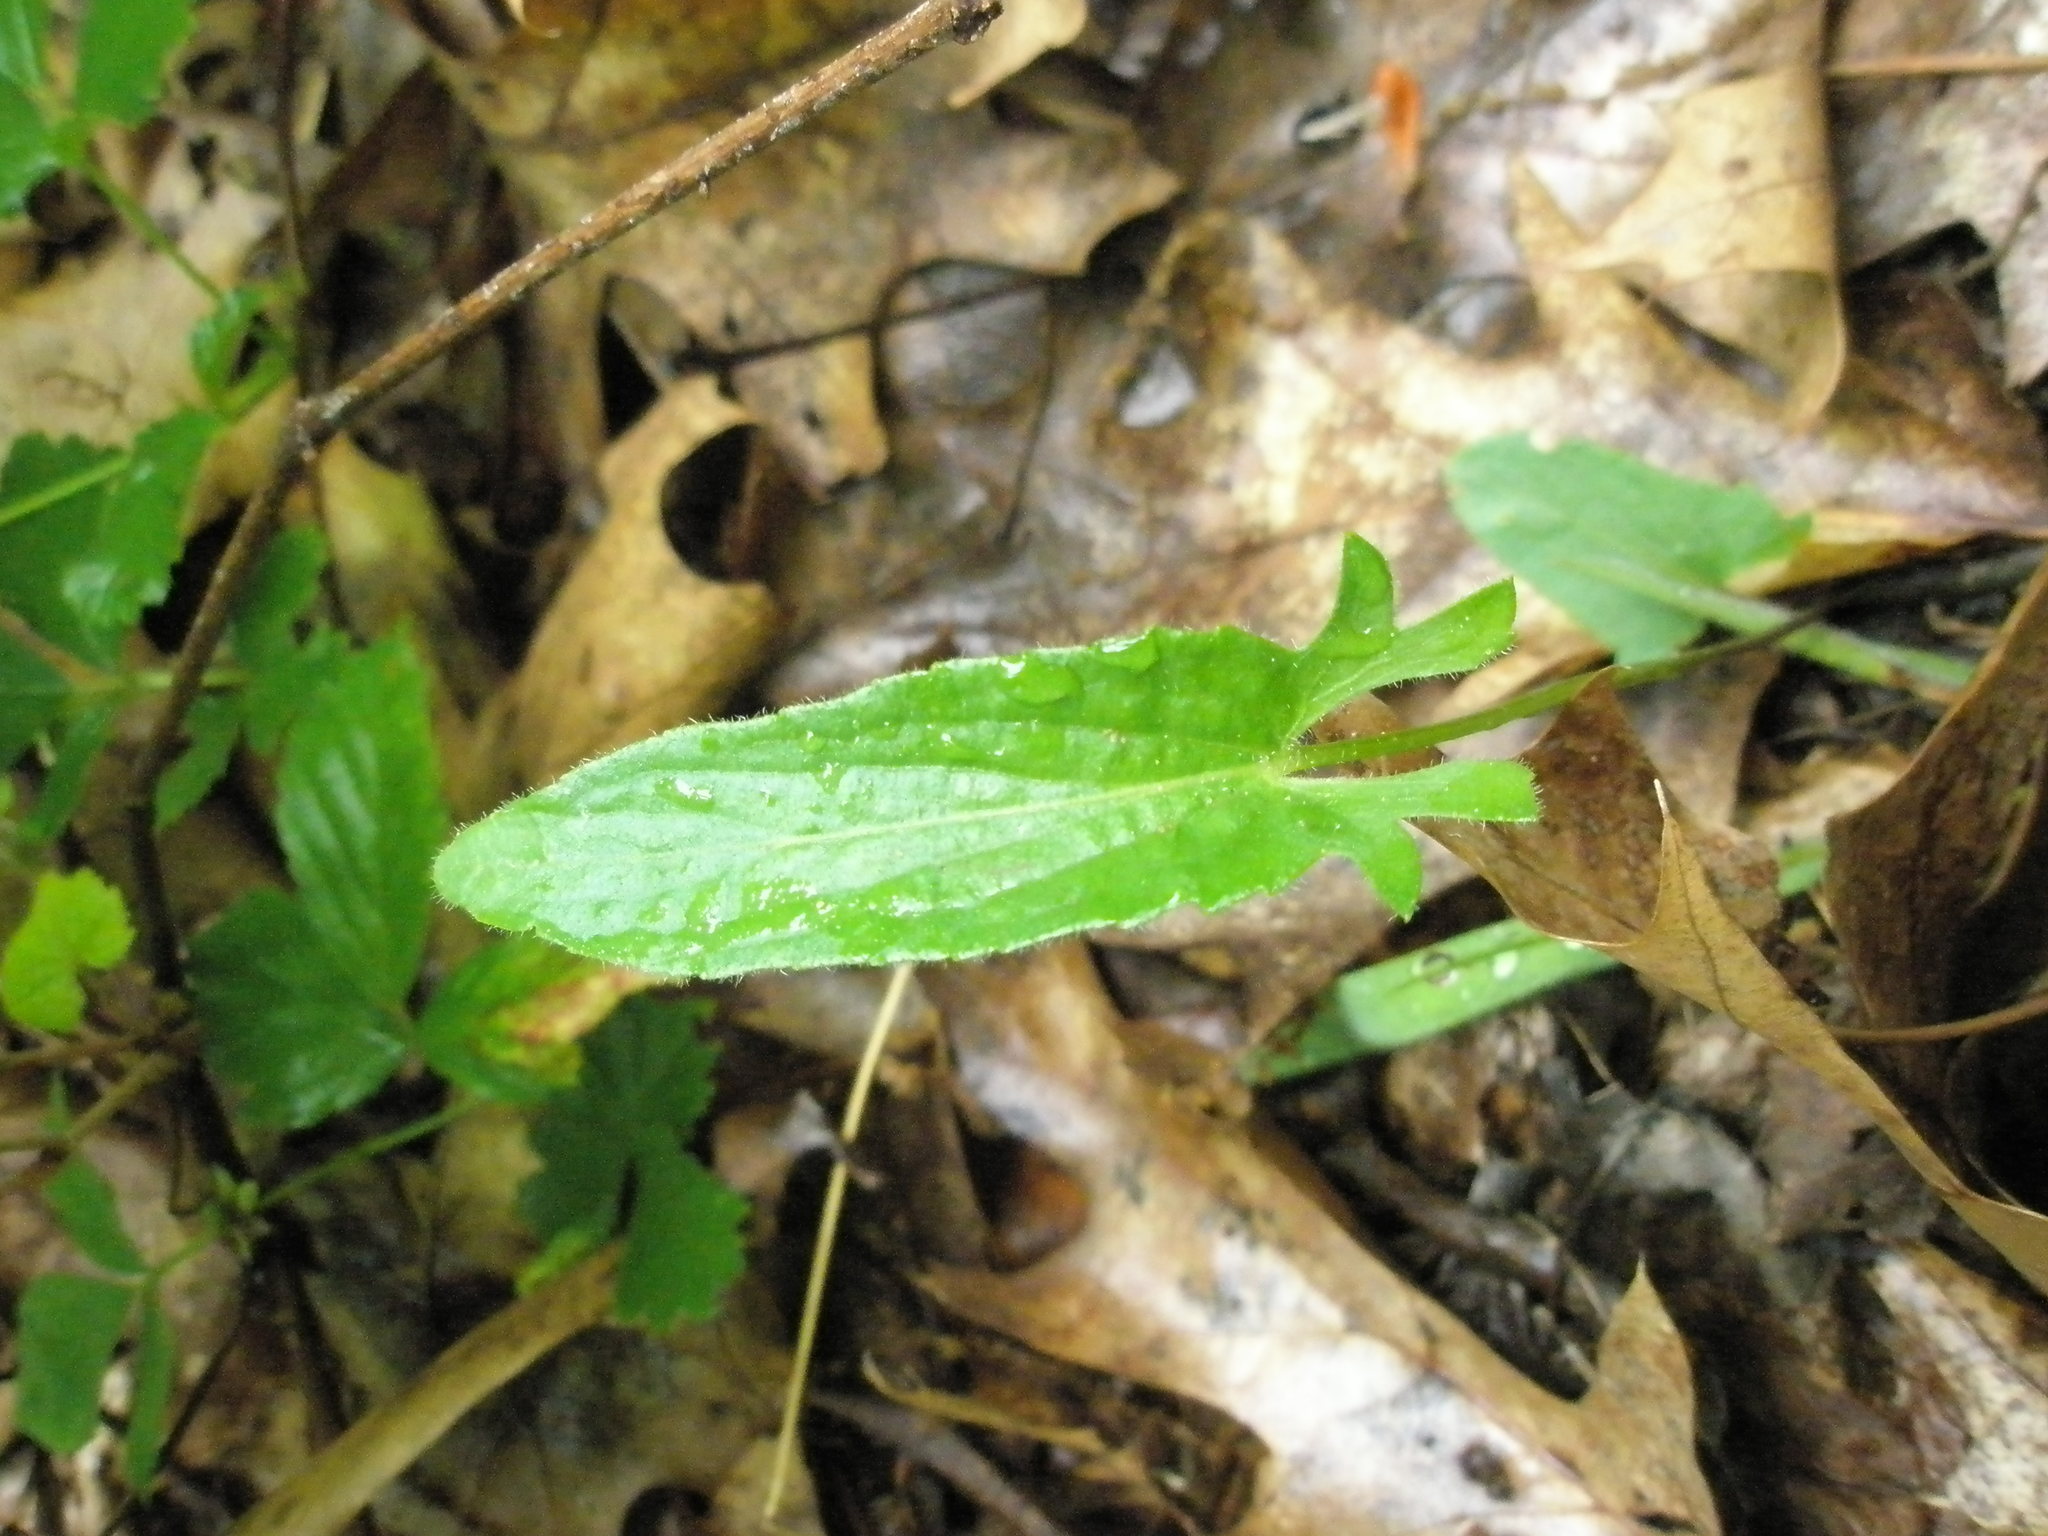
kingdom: Plantae
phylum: Tracheophyta
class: Magnoliopsida
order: Malpighiales
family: Violaceae
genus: Viola
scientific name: Viola sagittata
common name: Arrowhead violet
